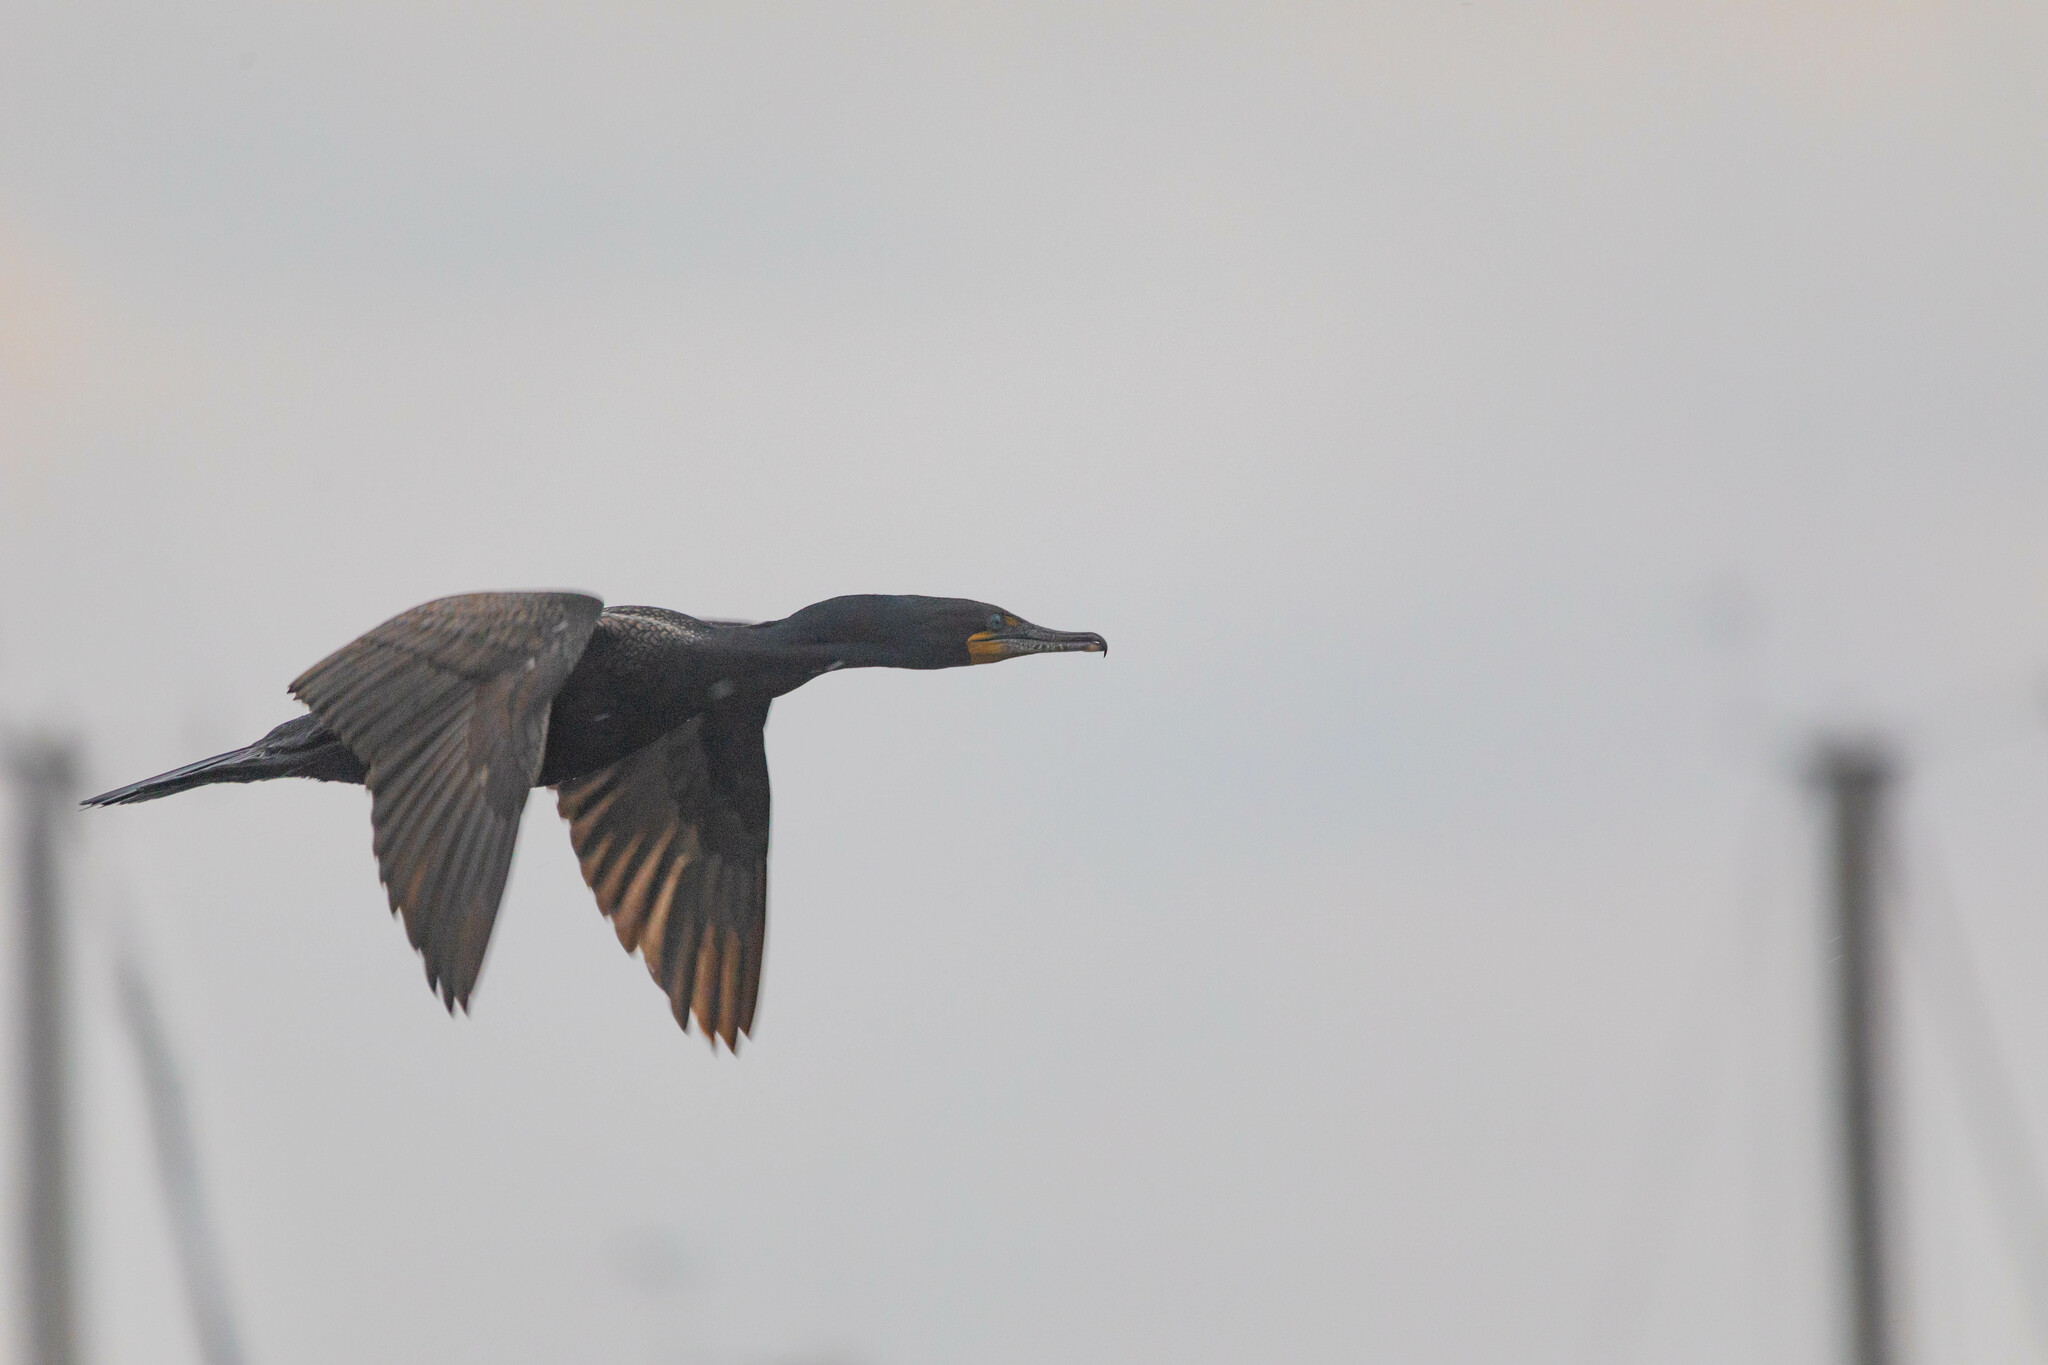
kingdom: Animalia
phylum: Chordata
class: Aves
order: Suliformes
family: Phalacrocoracidae
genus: Phalacrocorax
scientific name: Phalacrocorax auritus
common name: Double-crested cormorant
